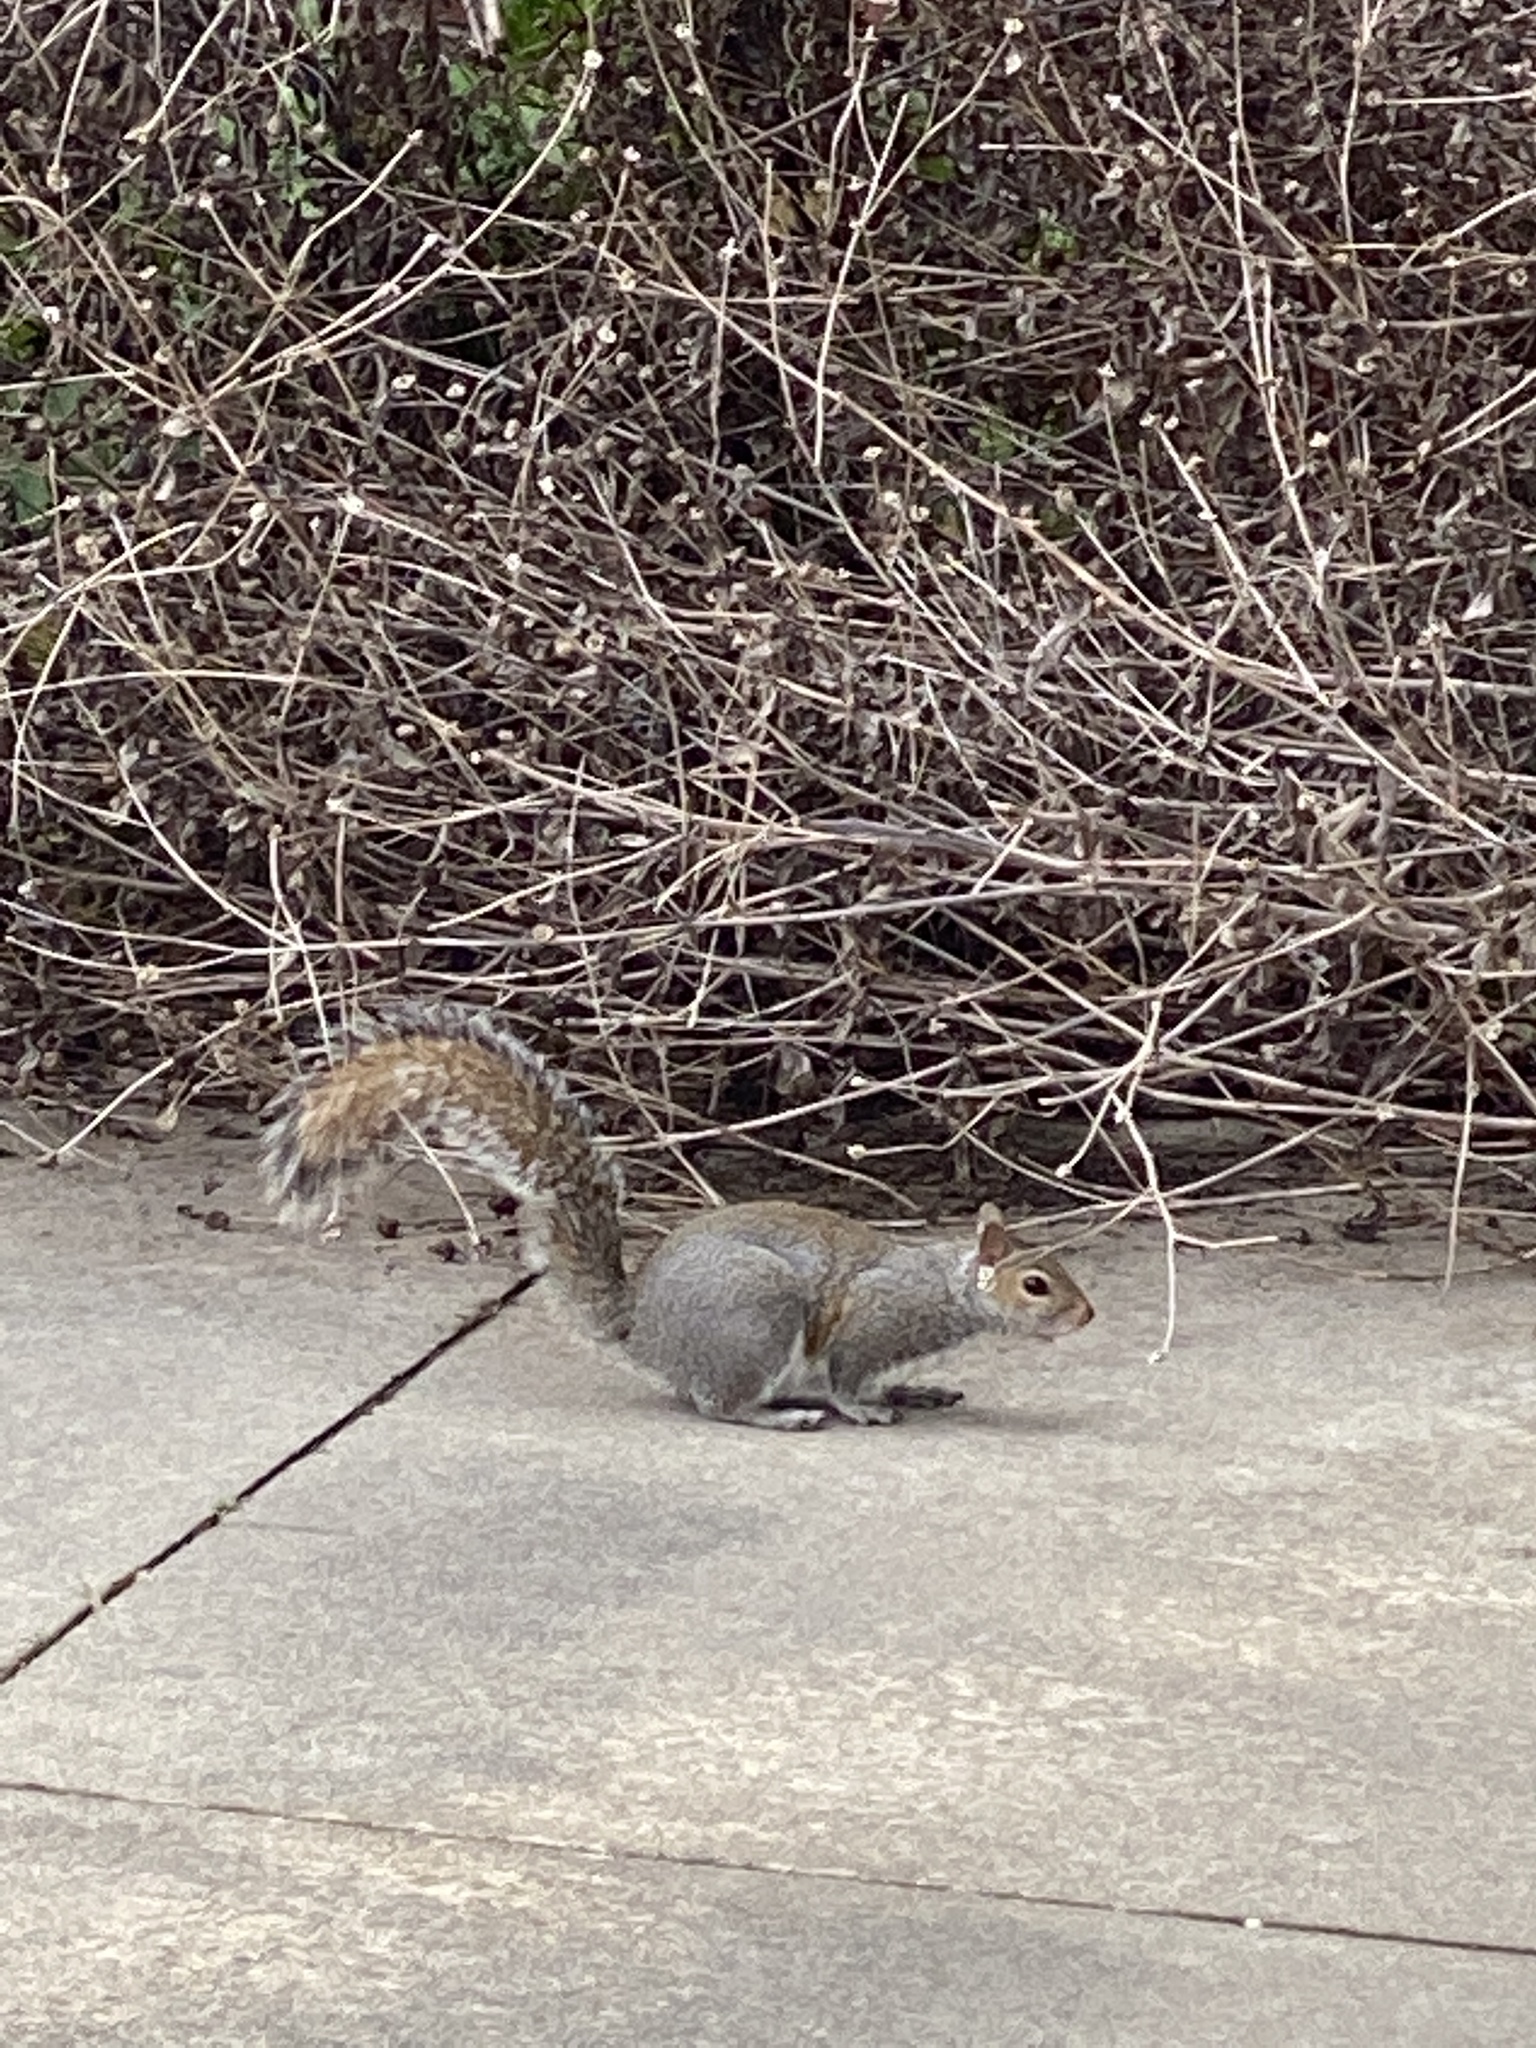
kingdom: Animalia
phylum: Chordata
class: Mammalia
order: Rodentia
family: Sciuridae
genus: Sciurus
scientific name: Sciurus carolinensis
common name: Eastern gray squirrel
